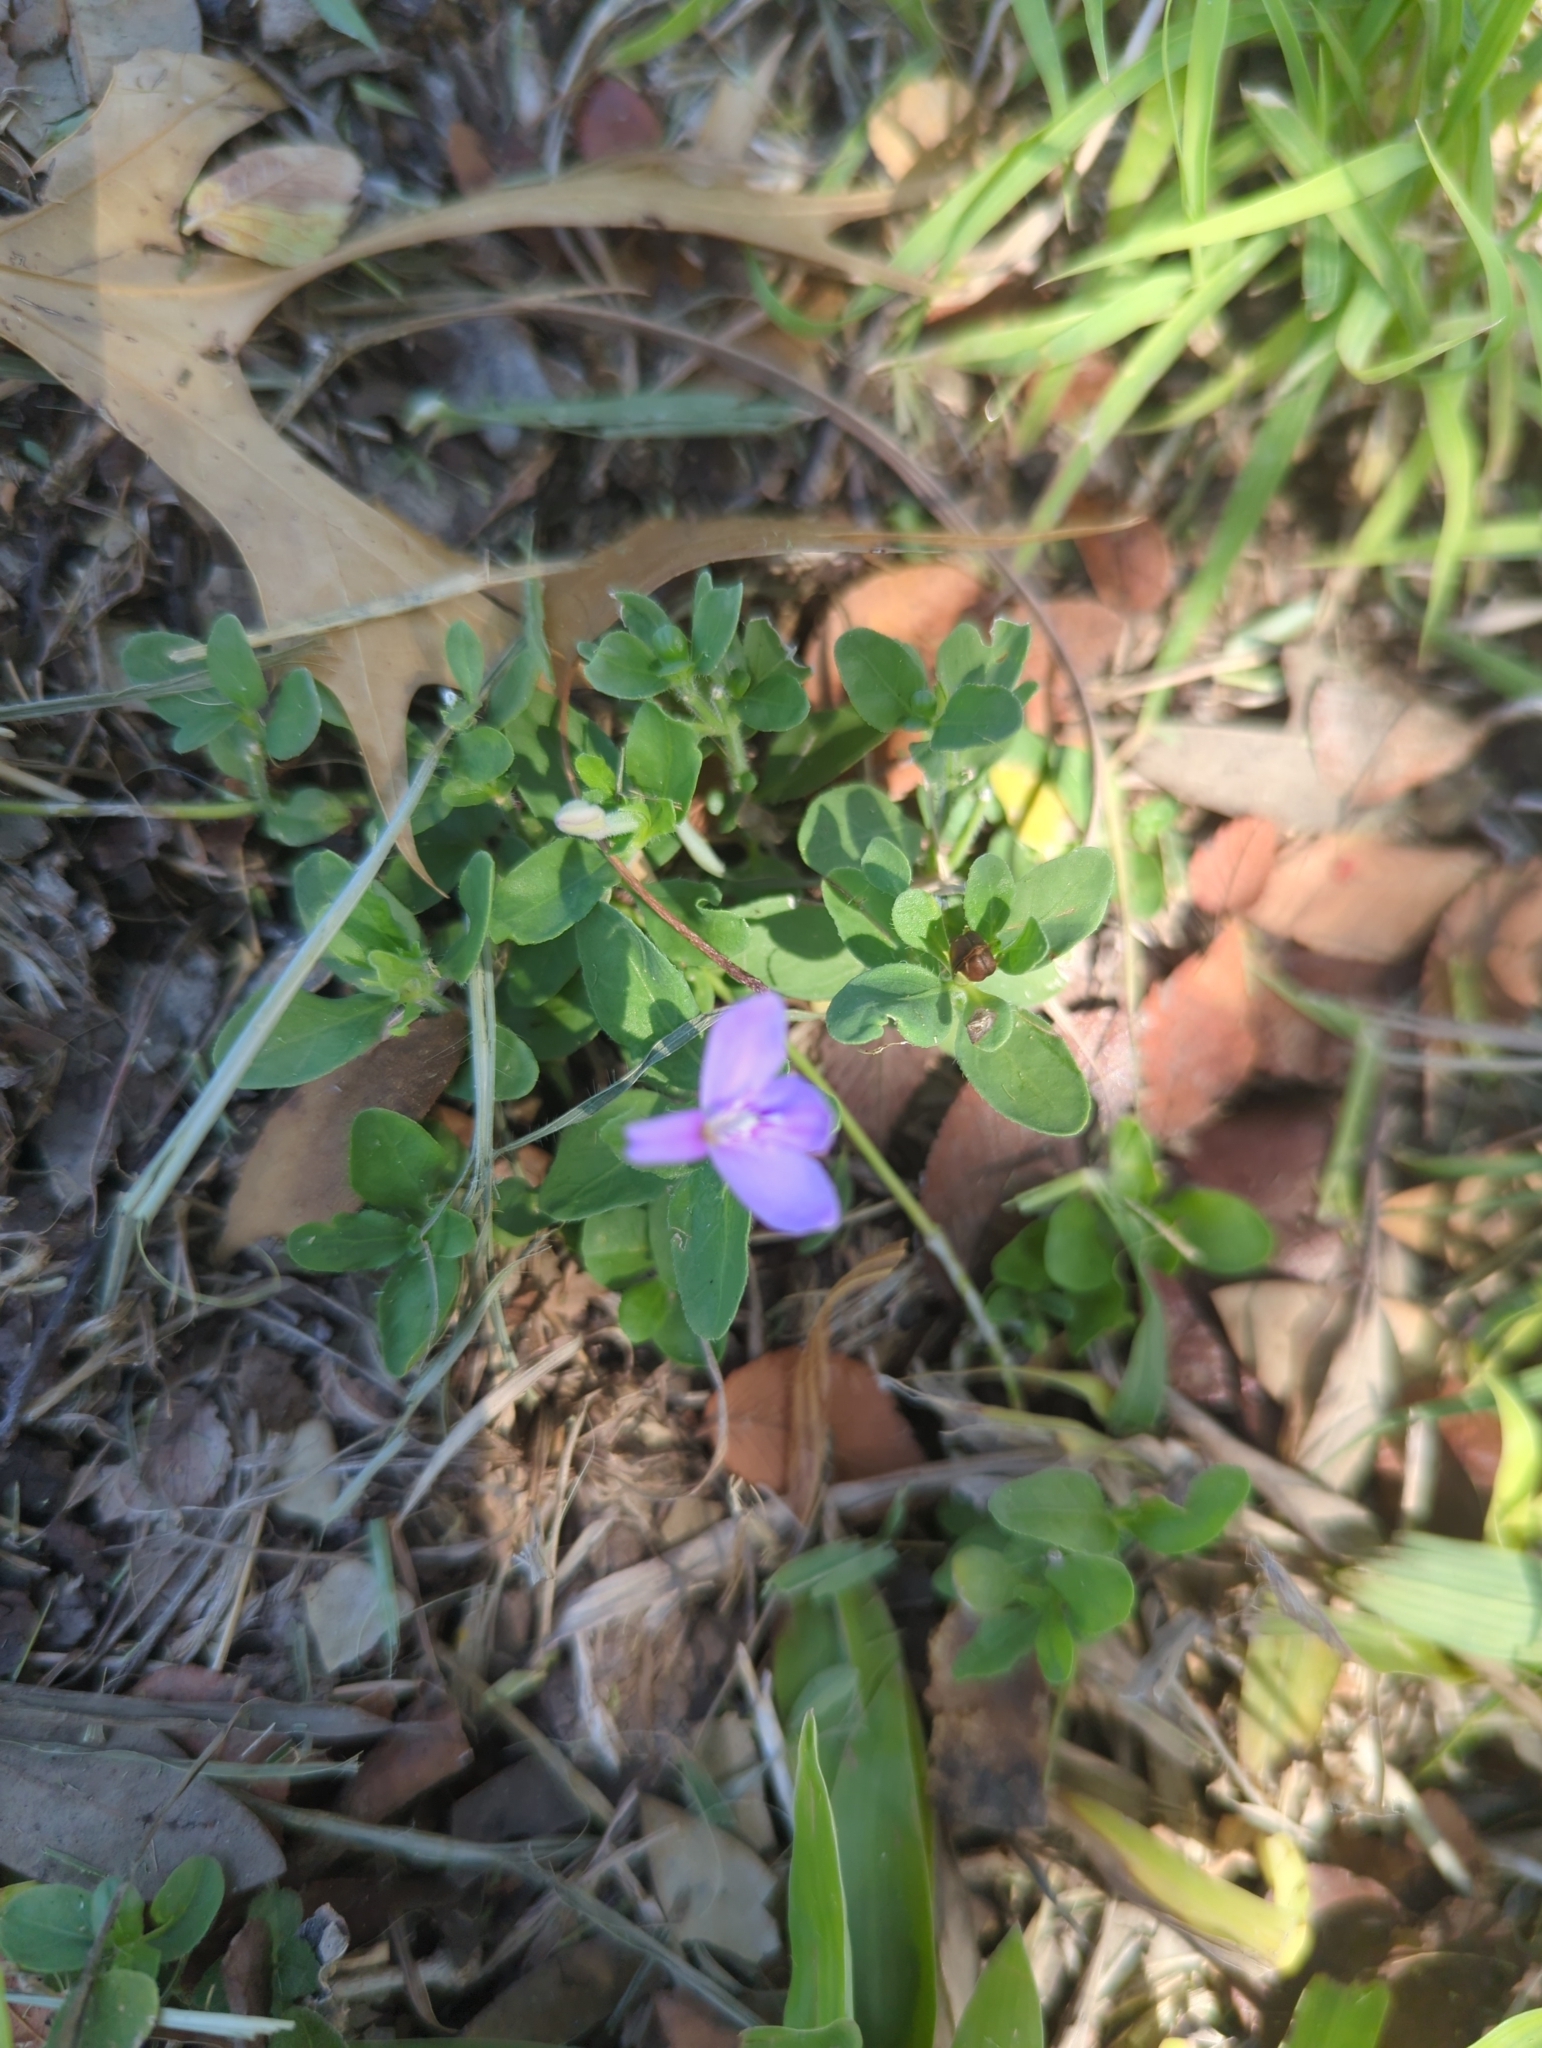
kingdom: Plantae
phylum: Tracheophyta
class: Magnoliopsida
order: Lamiales
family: Acanthaceae
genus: Justicia
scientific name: Justicia pilosella
